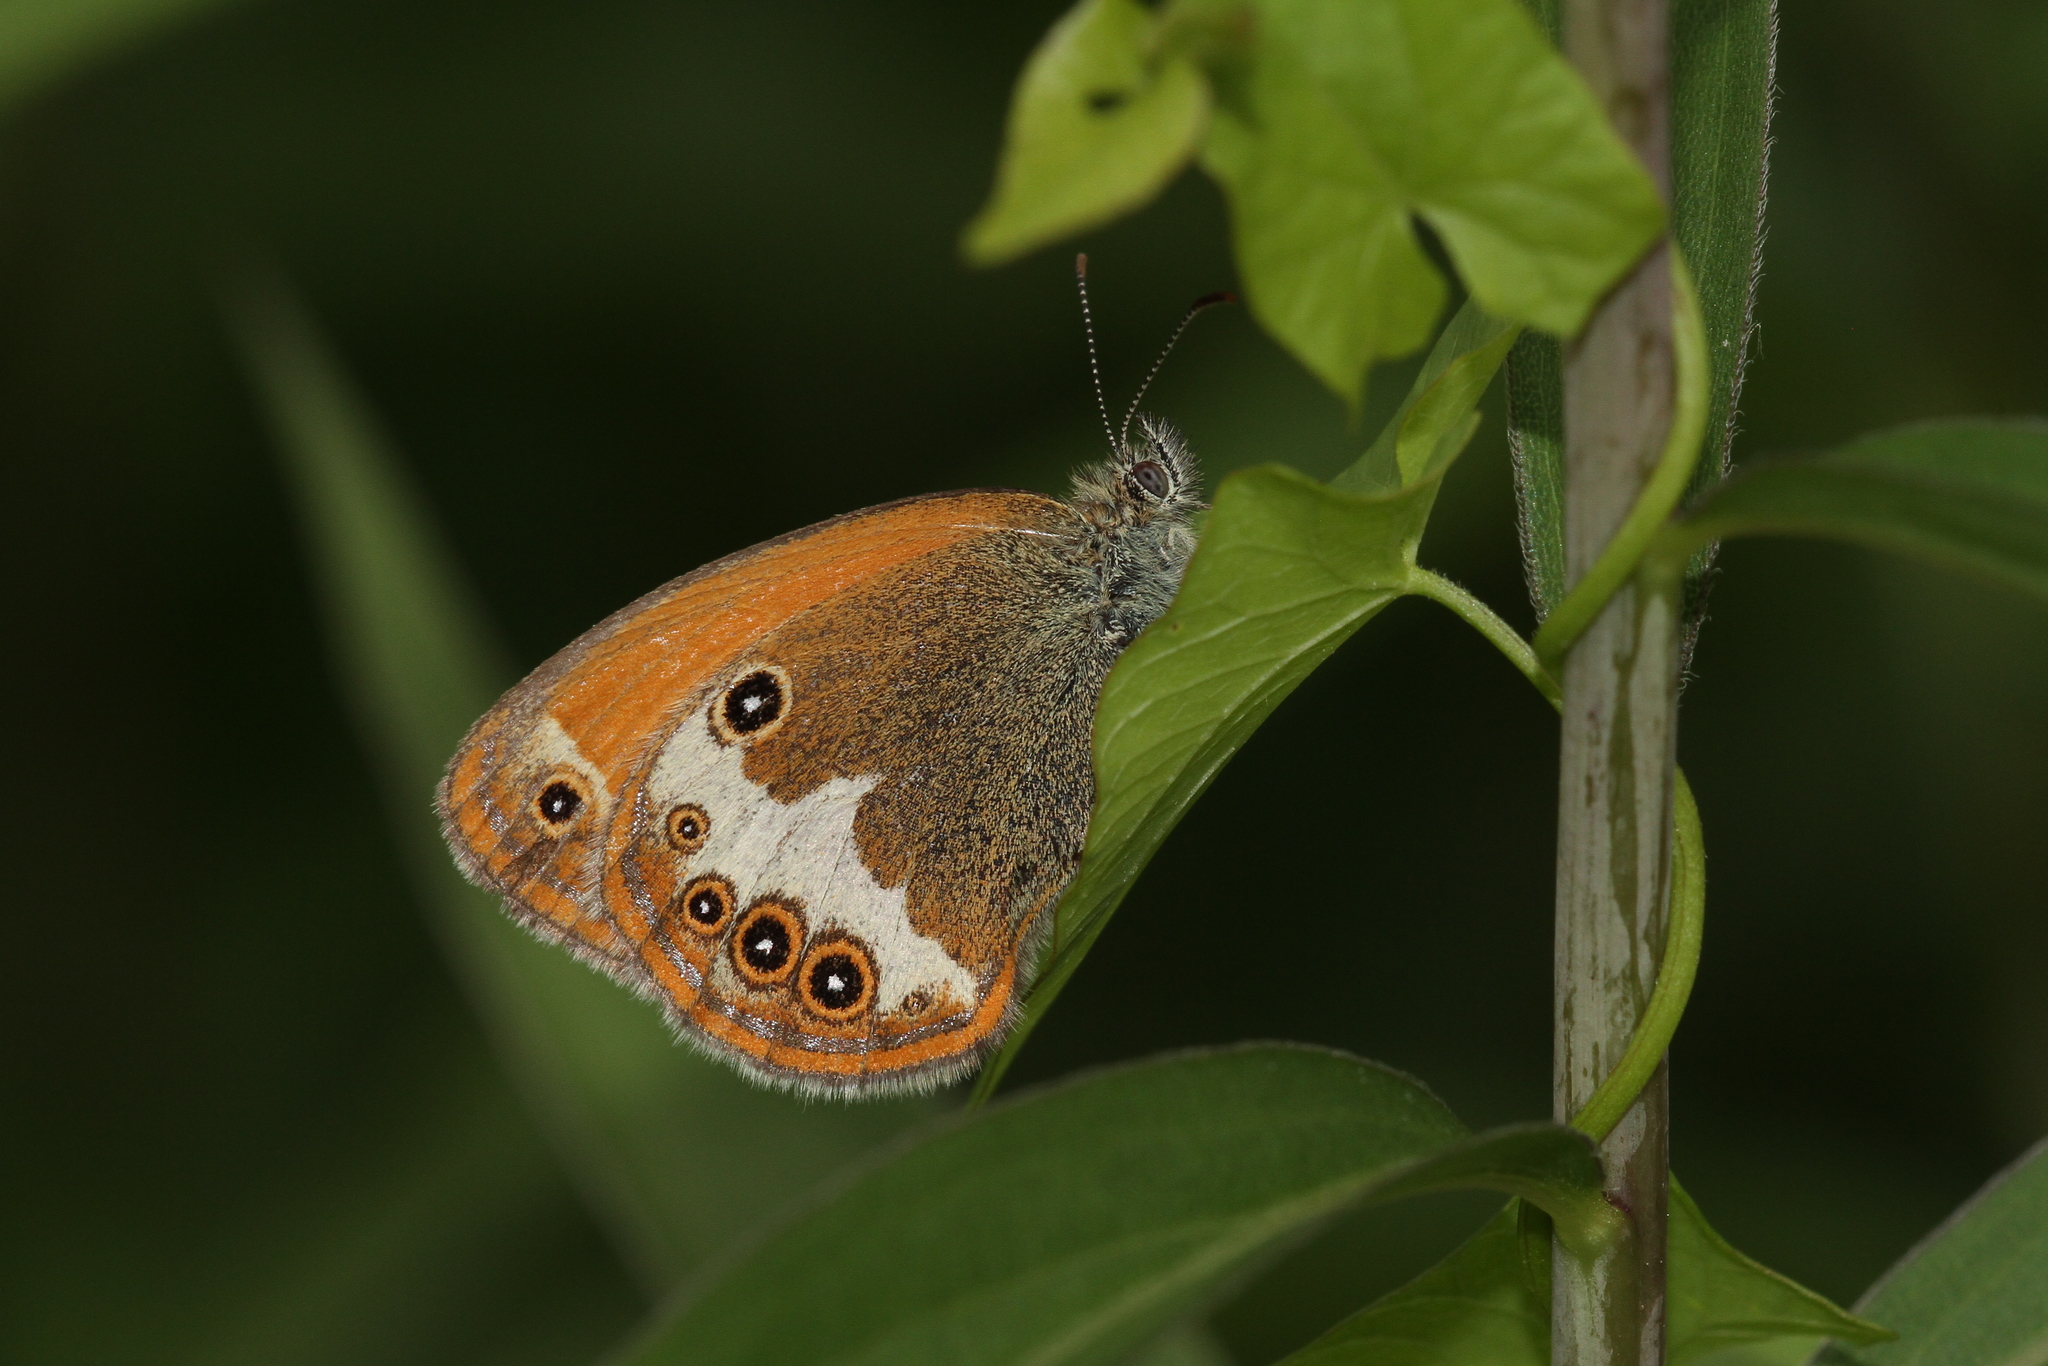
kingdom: Animalia
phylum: Arthropoda
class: Insecta
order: Lepidoptera
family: Nymphalidae
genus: Coenonympha
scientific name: Coenonympha arcania
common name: Pearly heath
